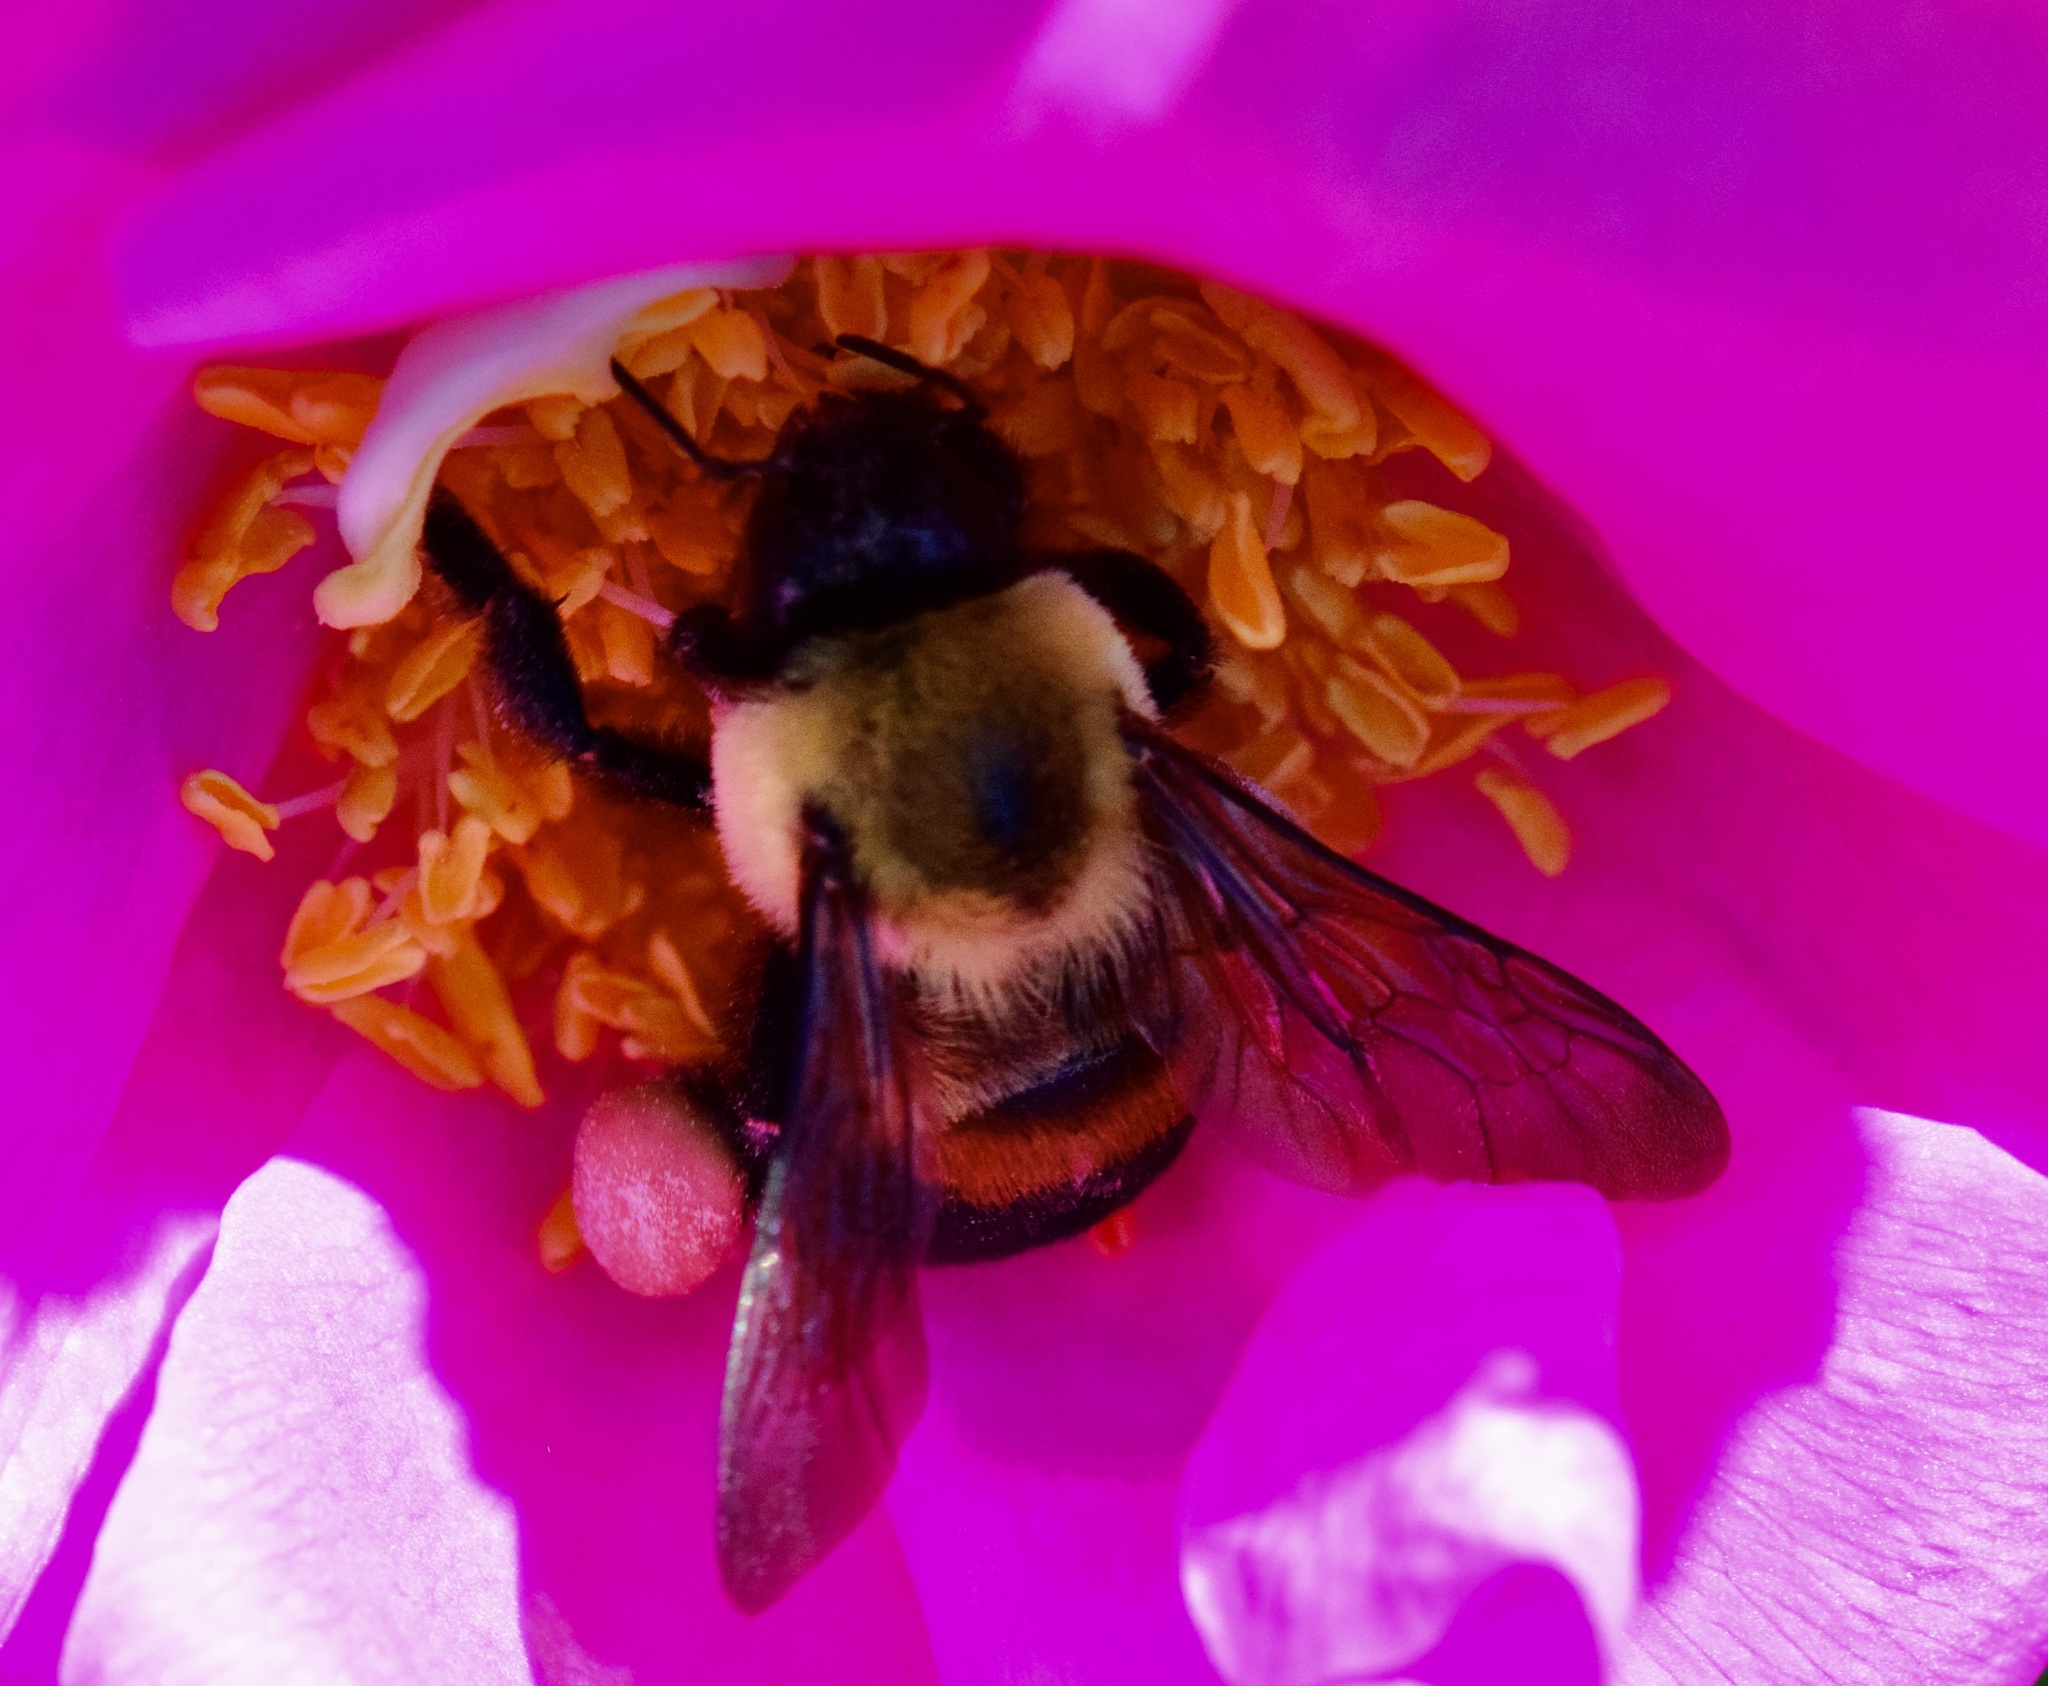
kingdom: Animalia
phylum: Arthropoda
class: Insecta
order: Hymenoptera
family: Apidae
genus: Bombus
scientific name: Bombus griseocollis
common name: Brown-belted bumble bee
